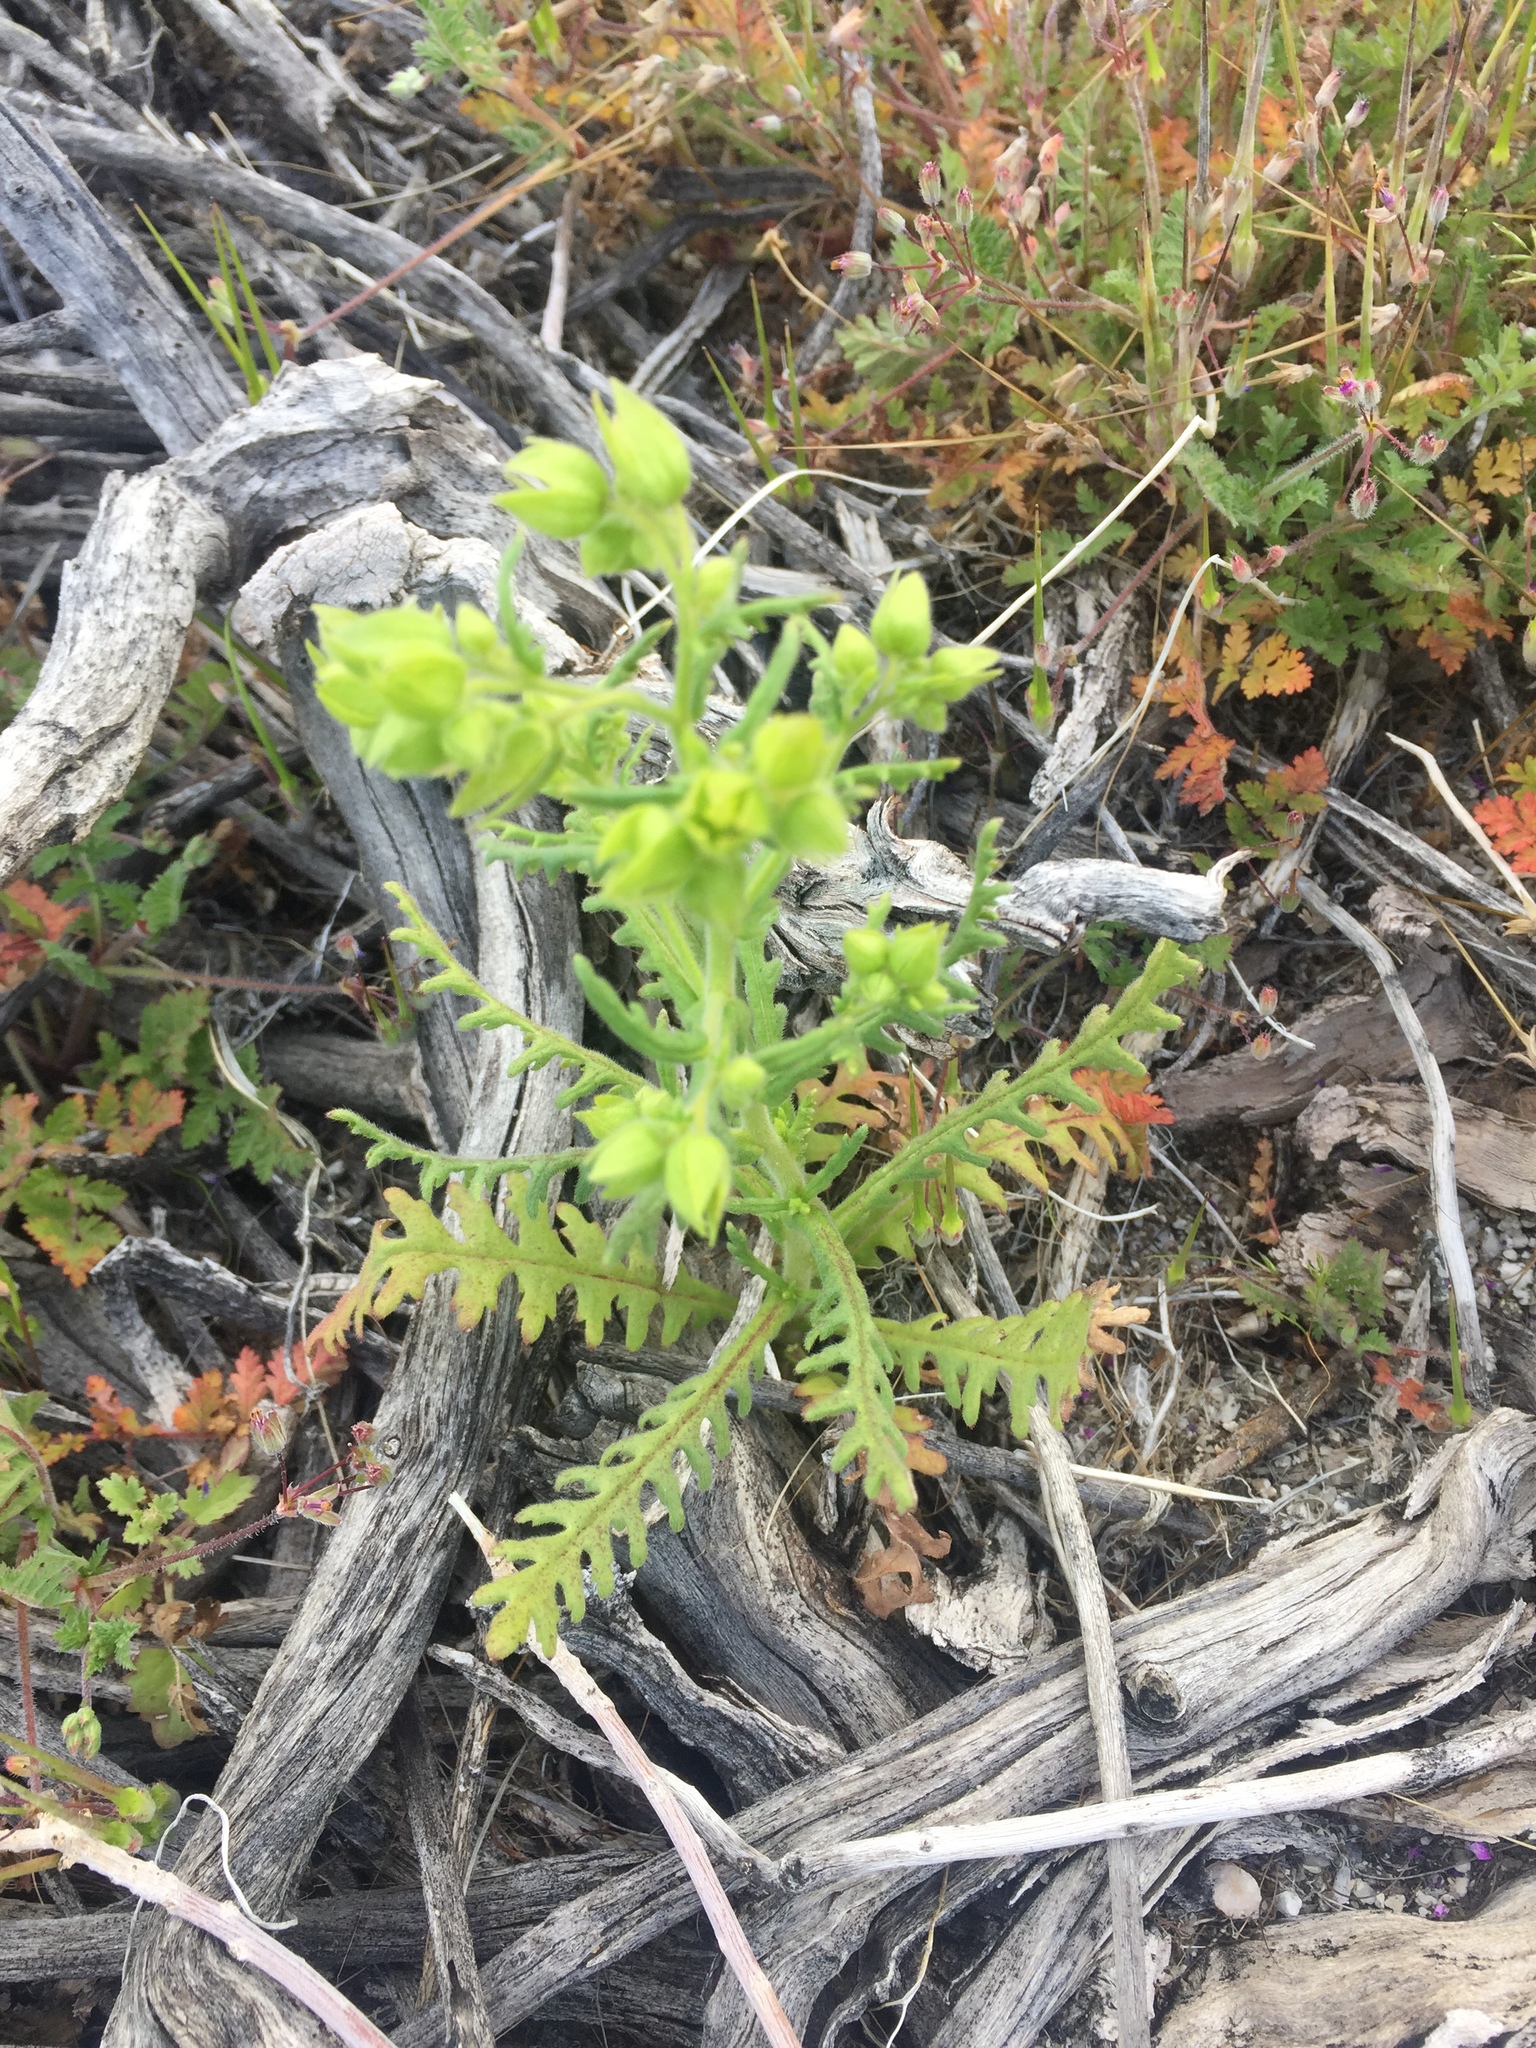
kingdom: Plantae
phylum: Tracheophyta
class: Magnoliopsida
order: Boraginales
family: Hydrophyllaceae
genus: Emmenanthe
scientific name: Emmenanthe penduliflora
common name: Whispering-bells
